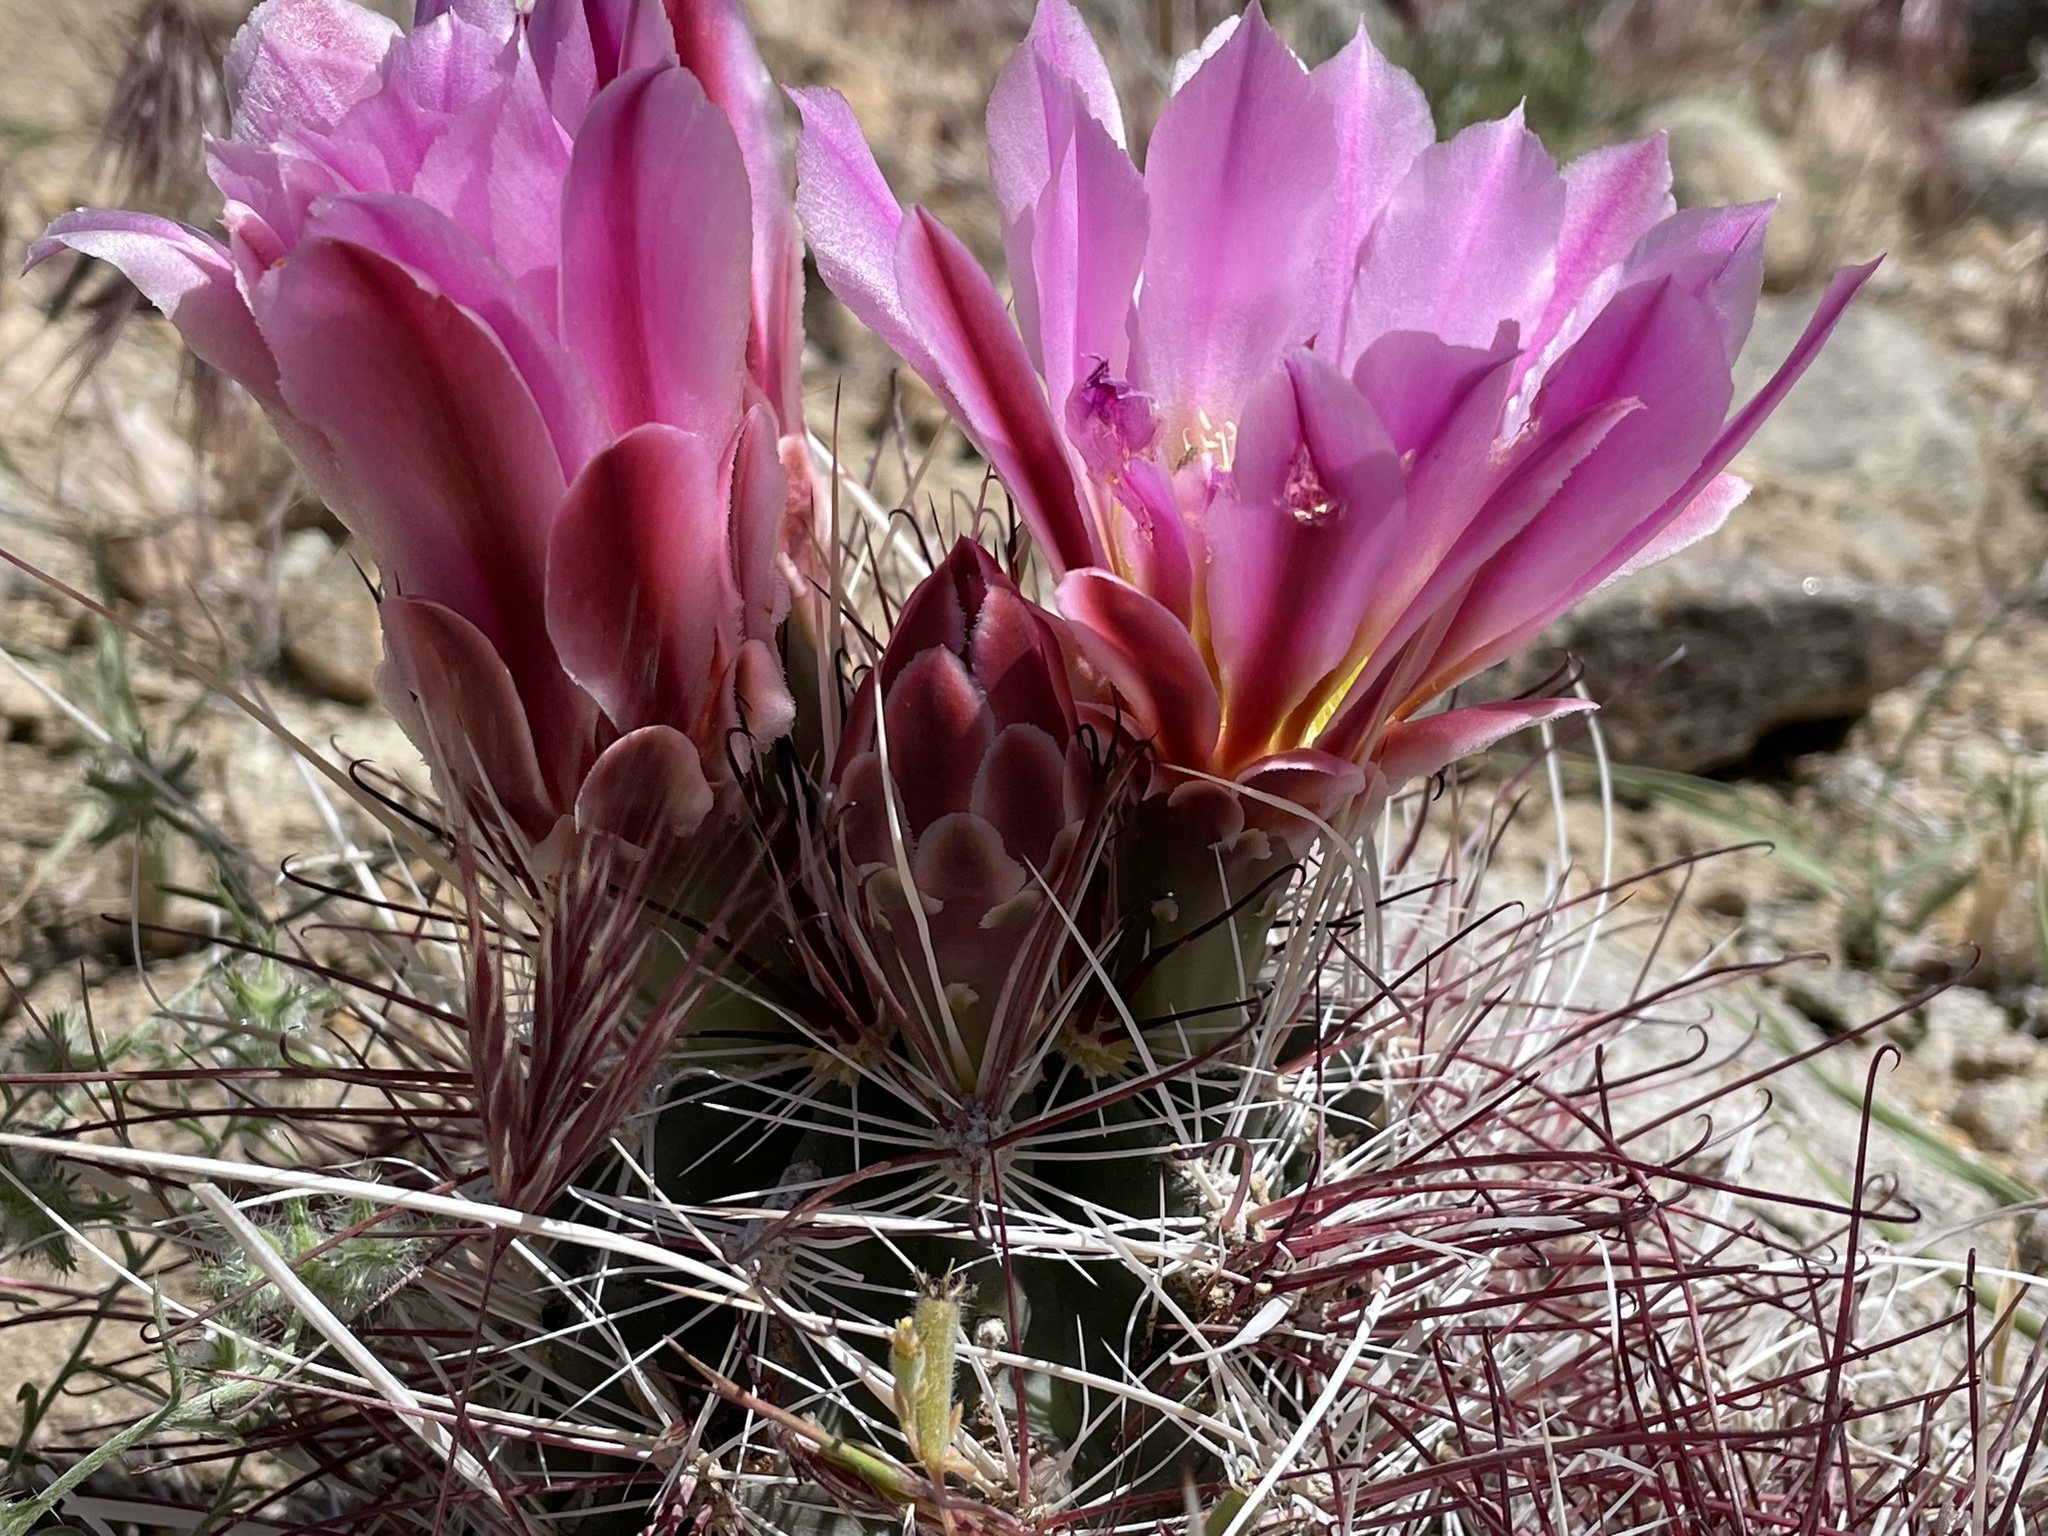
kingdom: Plantae
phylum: Tracheophyta
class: Magnoliopsida
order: Caryophyllales
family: Cactaceae
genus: Sclerocactus
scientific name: Sclerocactus polyancistrus
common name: Mohave fishhook cactus
